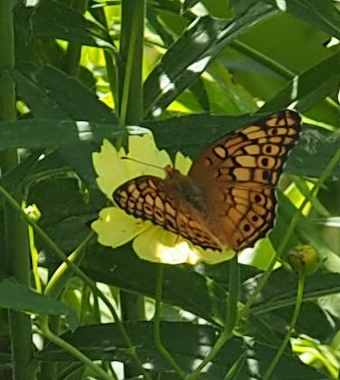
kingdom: Animalia
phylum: Arthropoda
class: Insecta
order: Lepidoptera
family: Nymphalidae
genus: Euptoieta
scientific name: Euptoieta claudia
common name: Variegated fritillary
